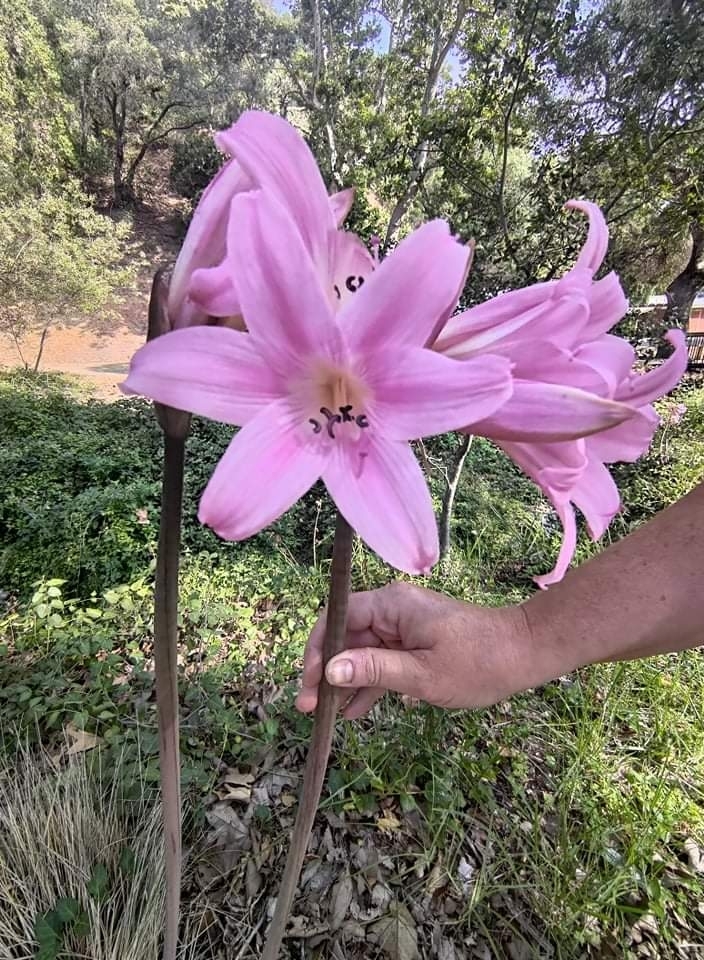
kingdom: Plantae
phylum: Tracheophyta
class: Liliopsida
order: Asparagales
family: Amaryllidaceae
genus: Amaryllis
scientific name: Amaryllis belladonna
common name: Jersey lily
